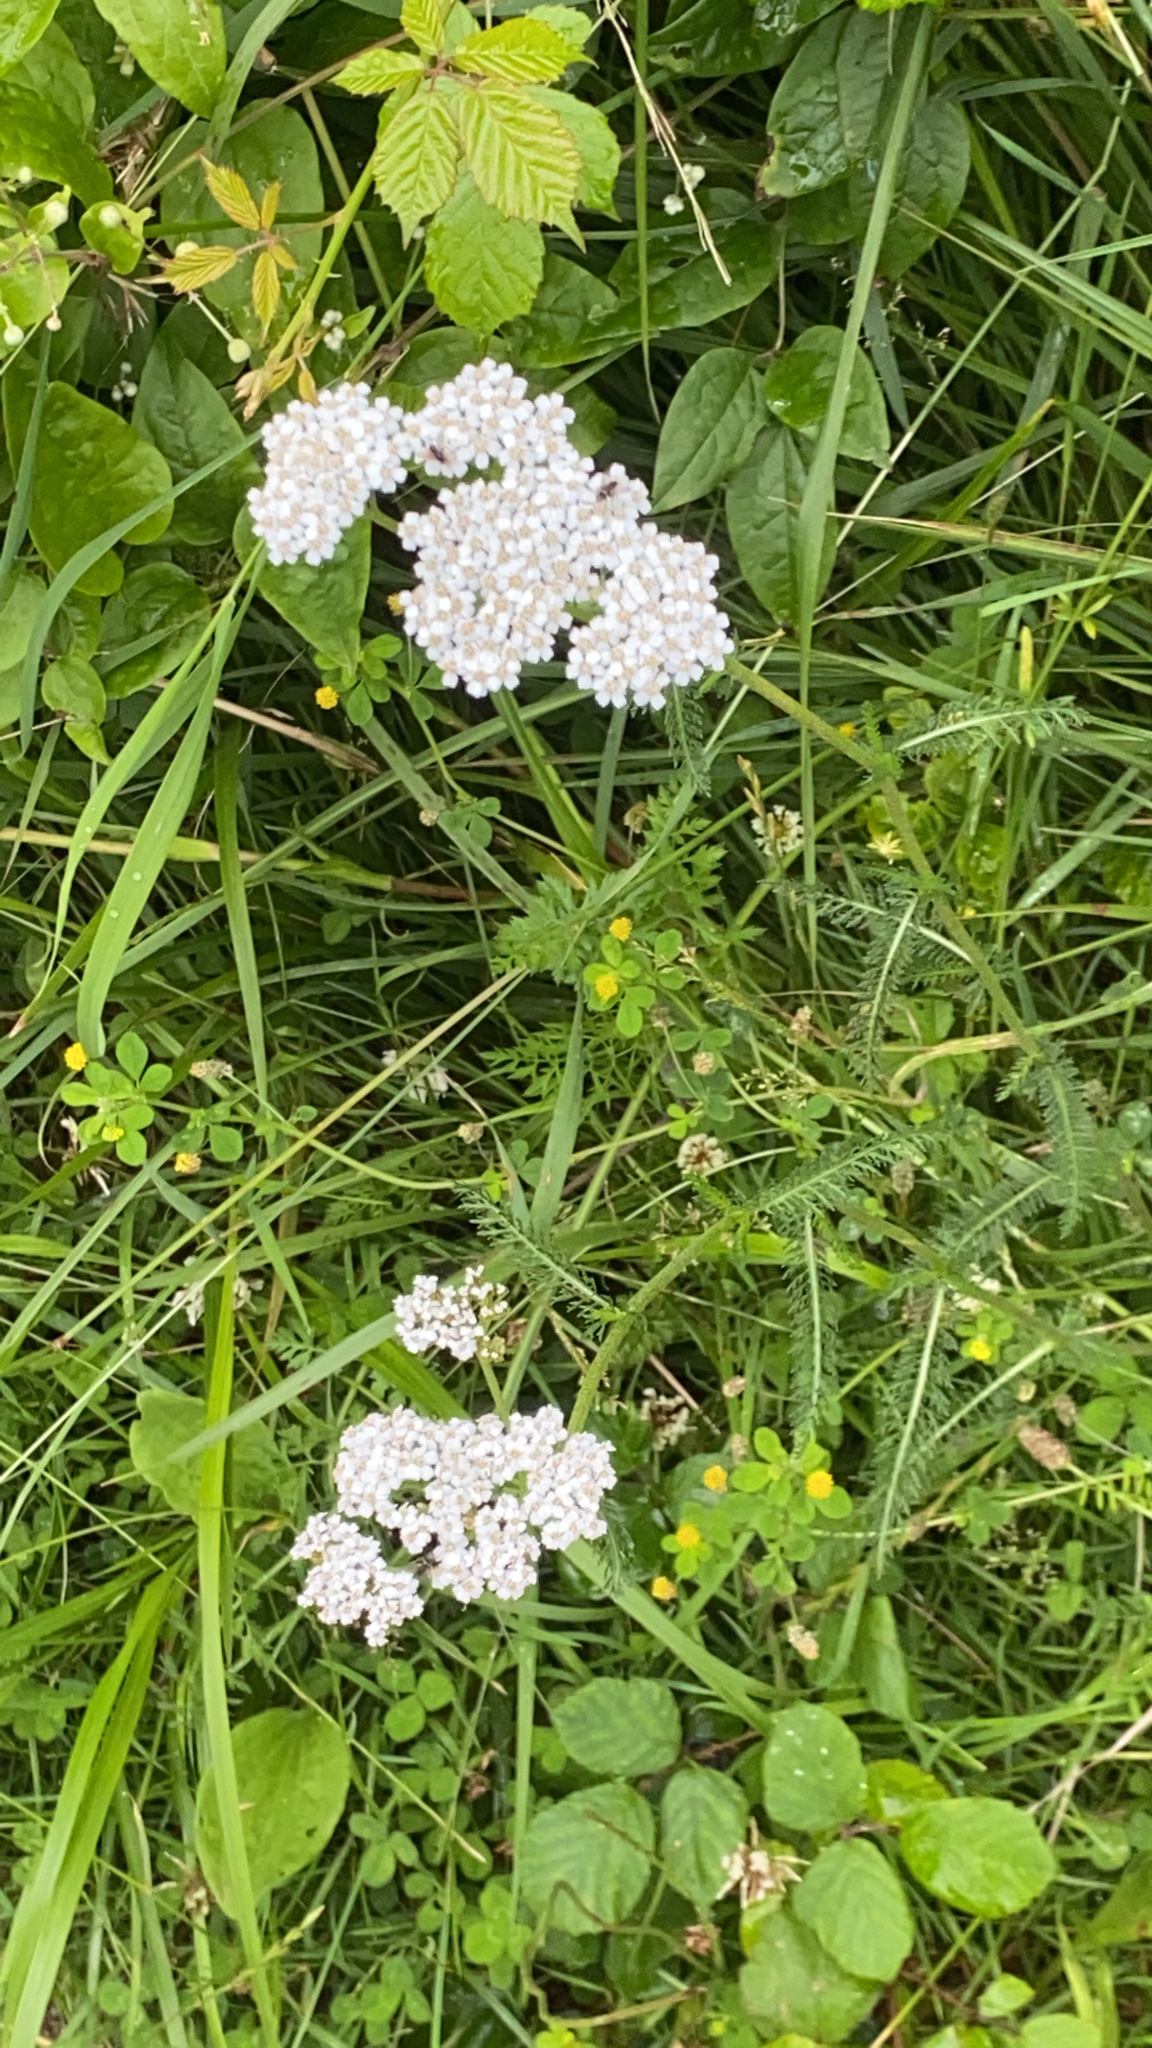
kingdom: Plantae
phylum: Tracheophyta
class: Magnoliopsida
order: Asterales
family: Asteraceae
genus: Achillea
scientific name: Achillea millefolium
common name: Yarrow
